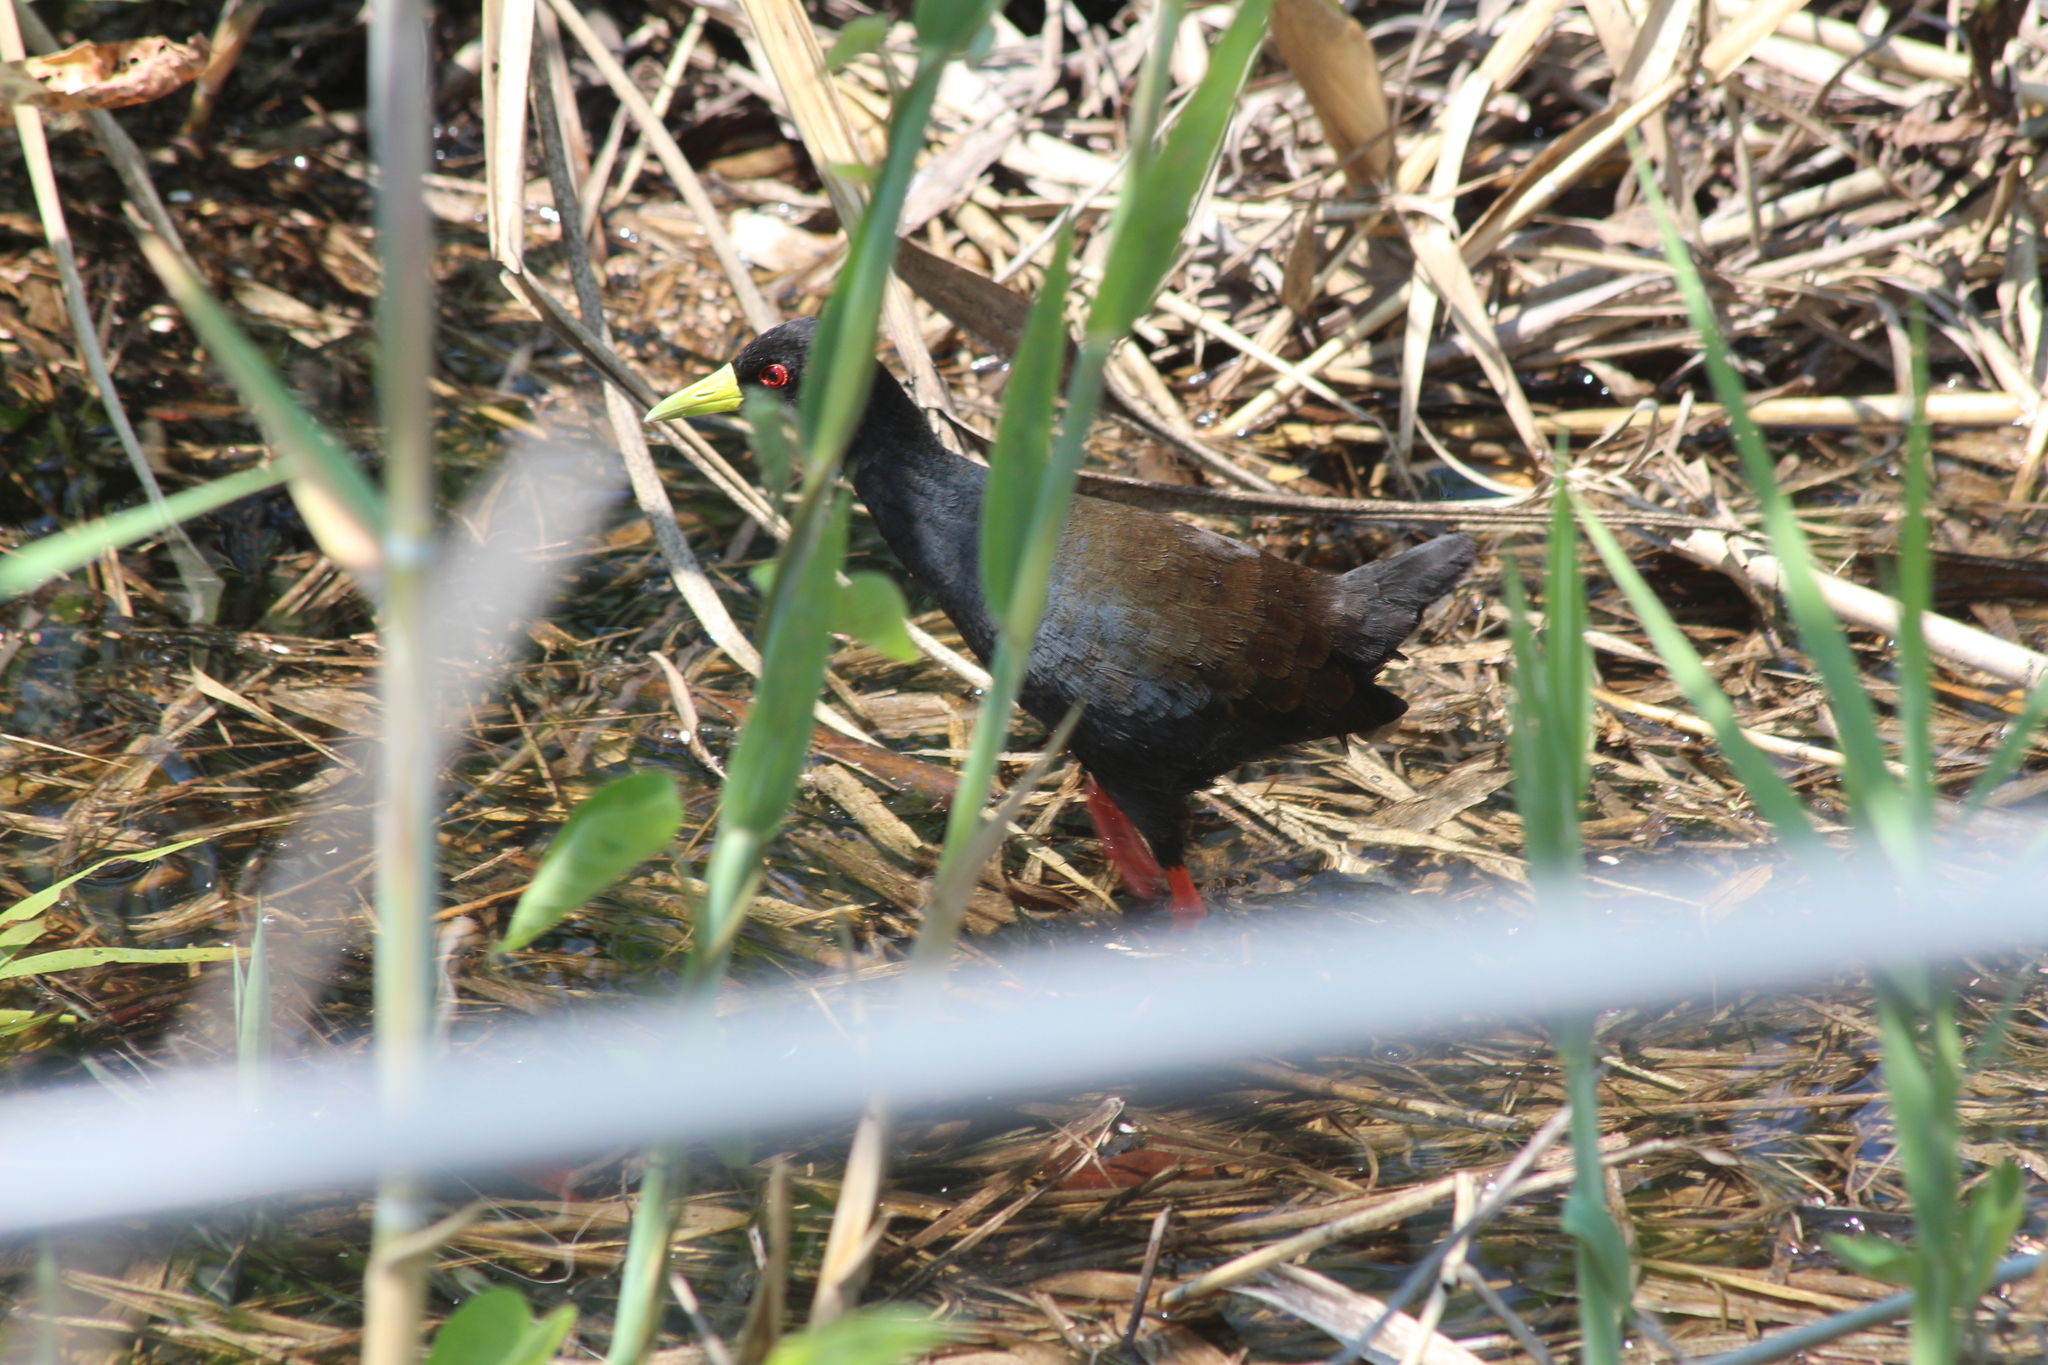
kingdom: Animalia
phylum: Chordata
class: Aves
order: Gruiformes
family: Rallidae
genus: Amaurornis
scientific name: Amaurornis flavirostra
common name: Black crake
